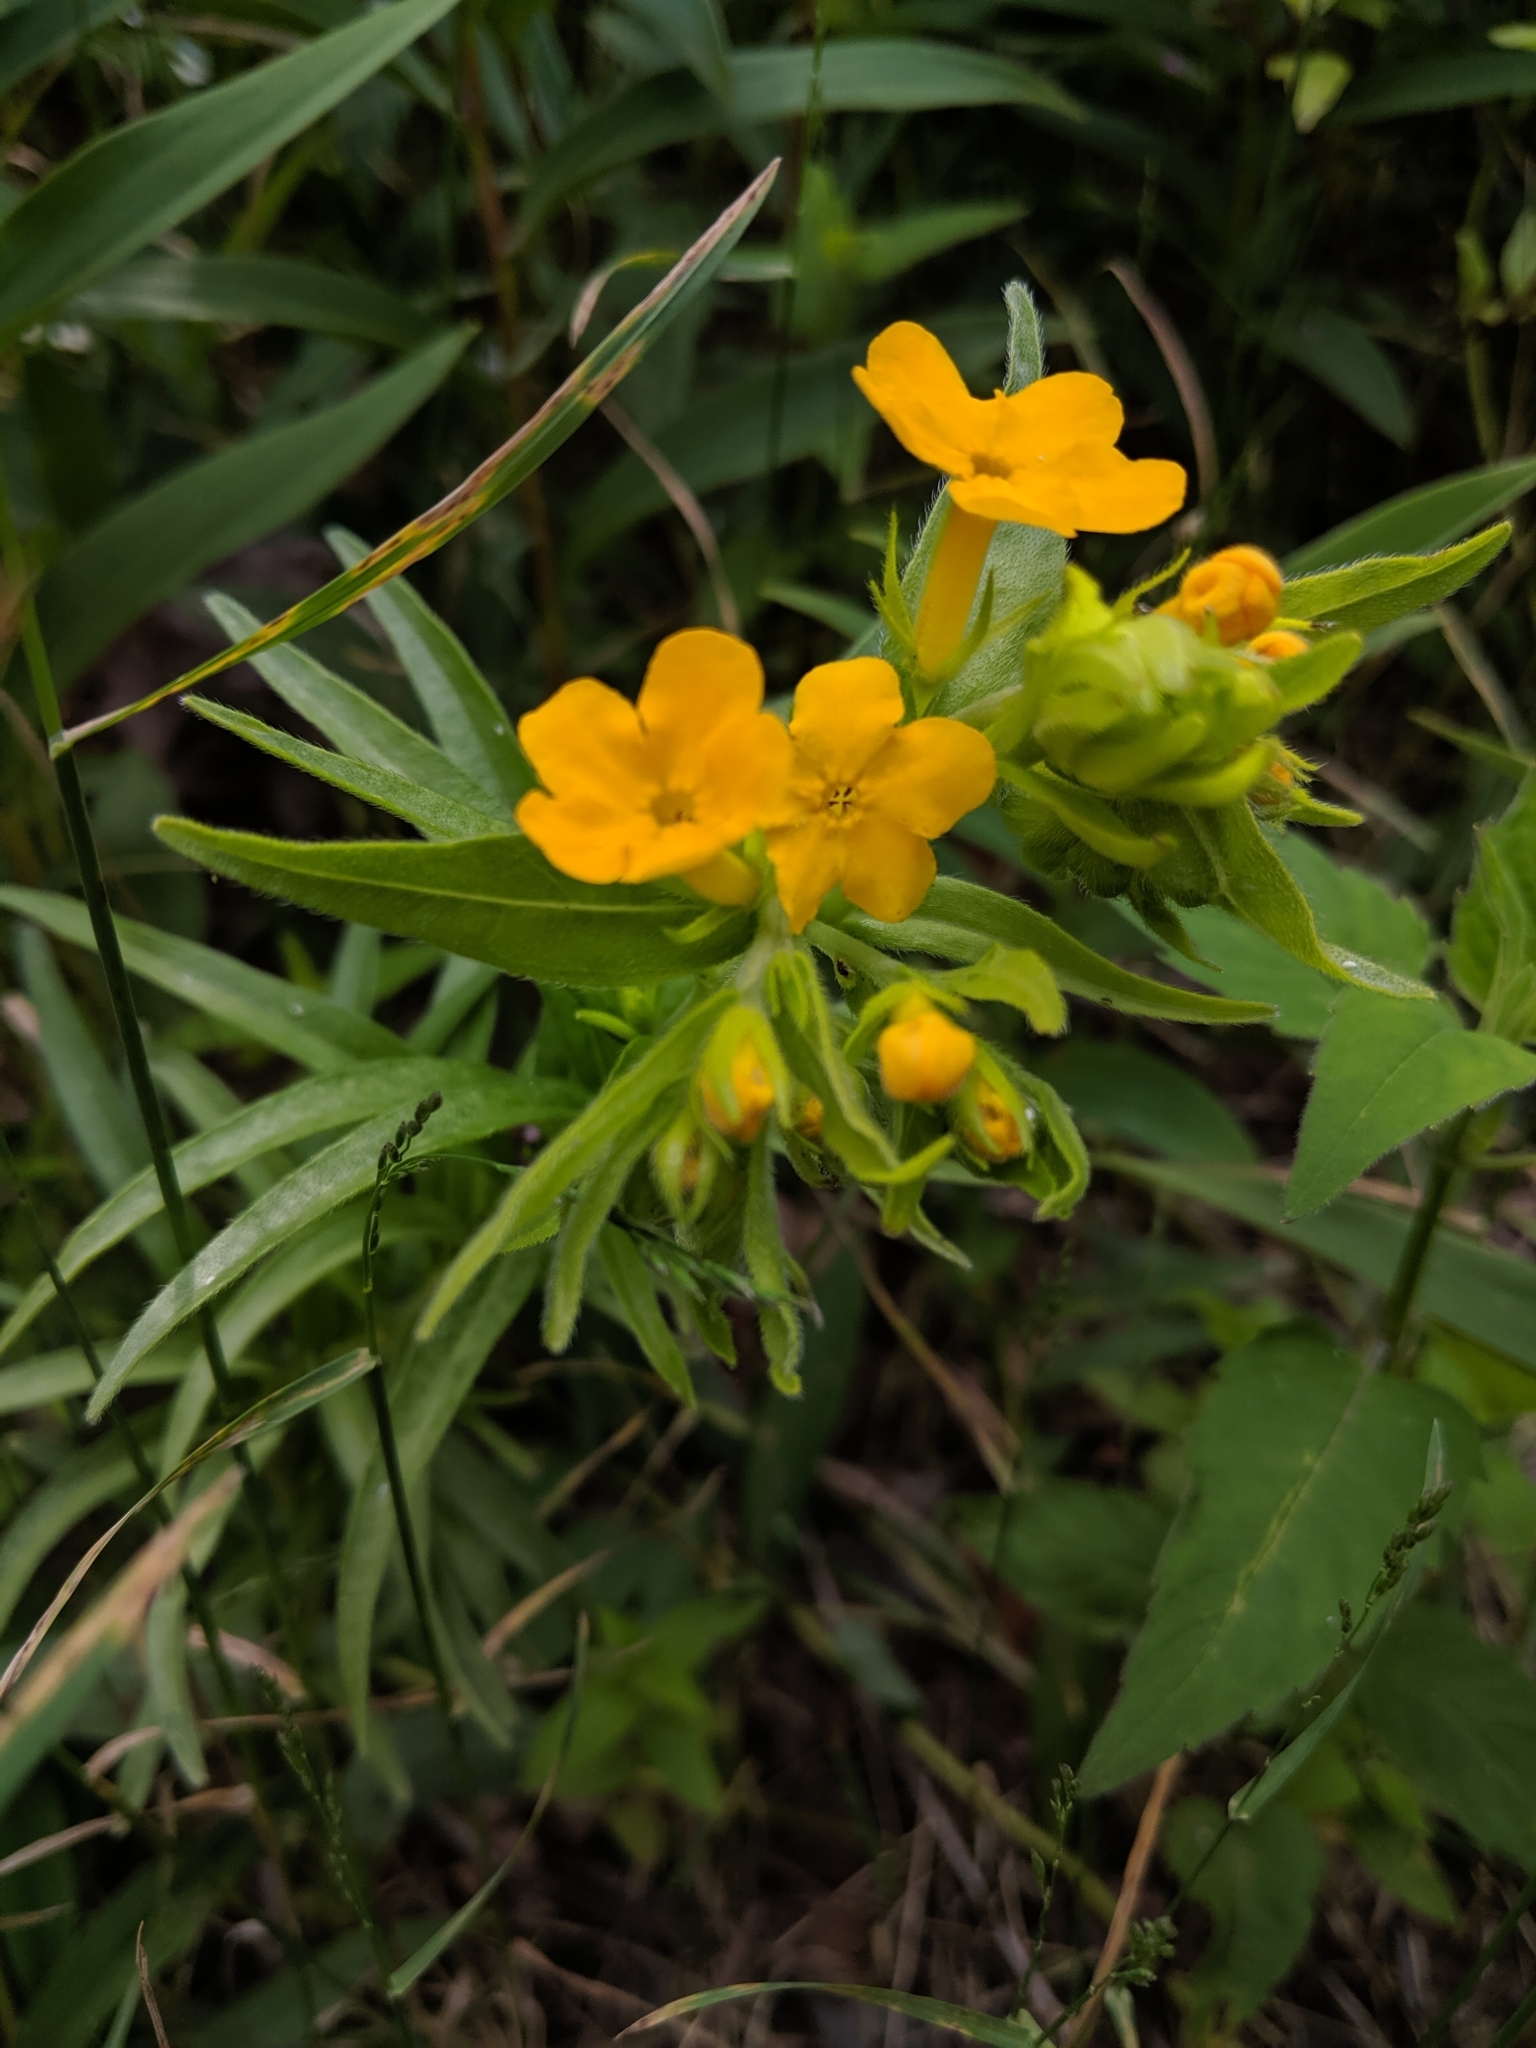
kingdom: Plantae
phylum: Tracheophyta
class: Magnoliopsida
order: Boraginales
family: Boraginaceae
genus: Lithospermum
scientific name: Lithospermum caroliniense
